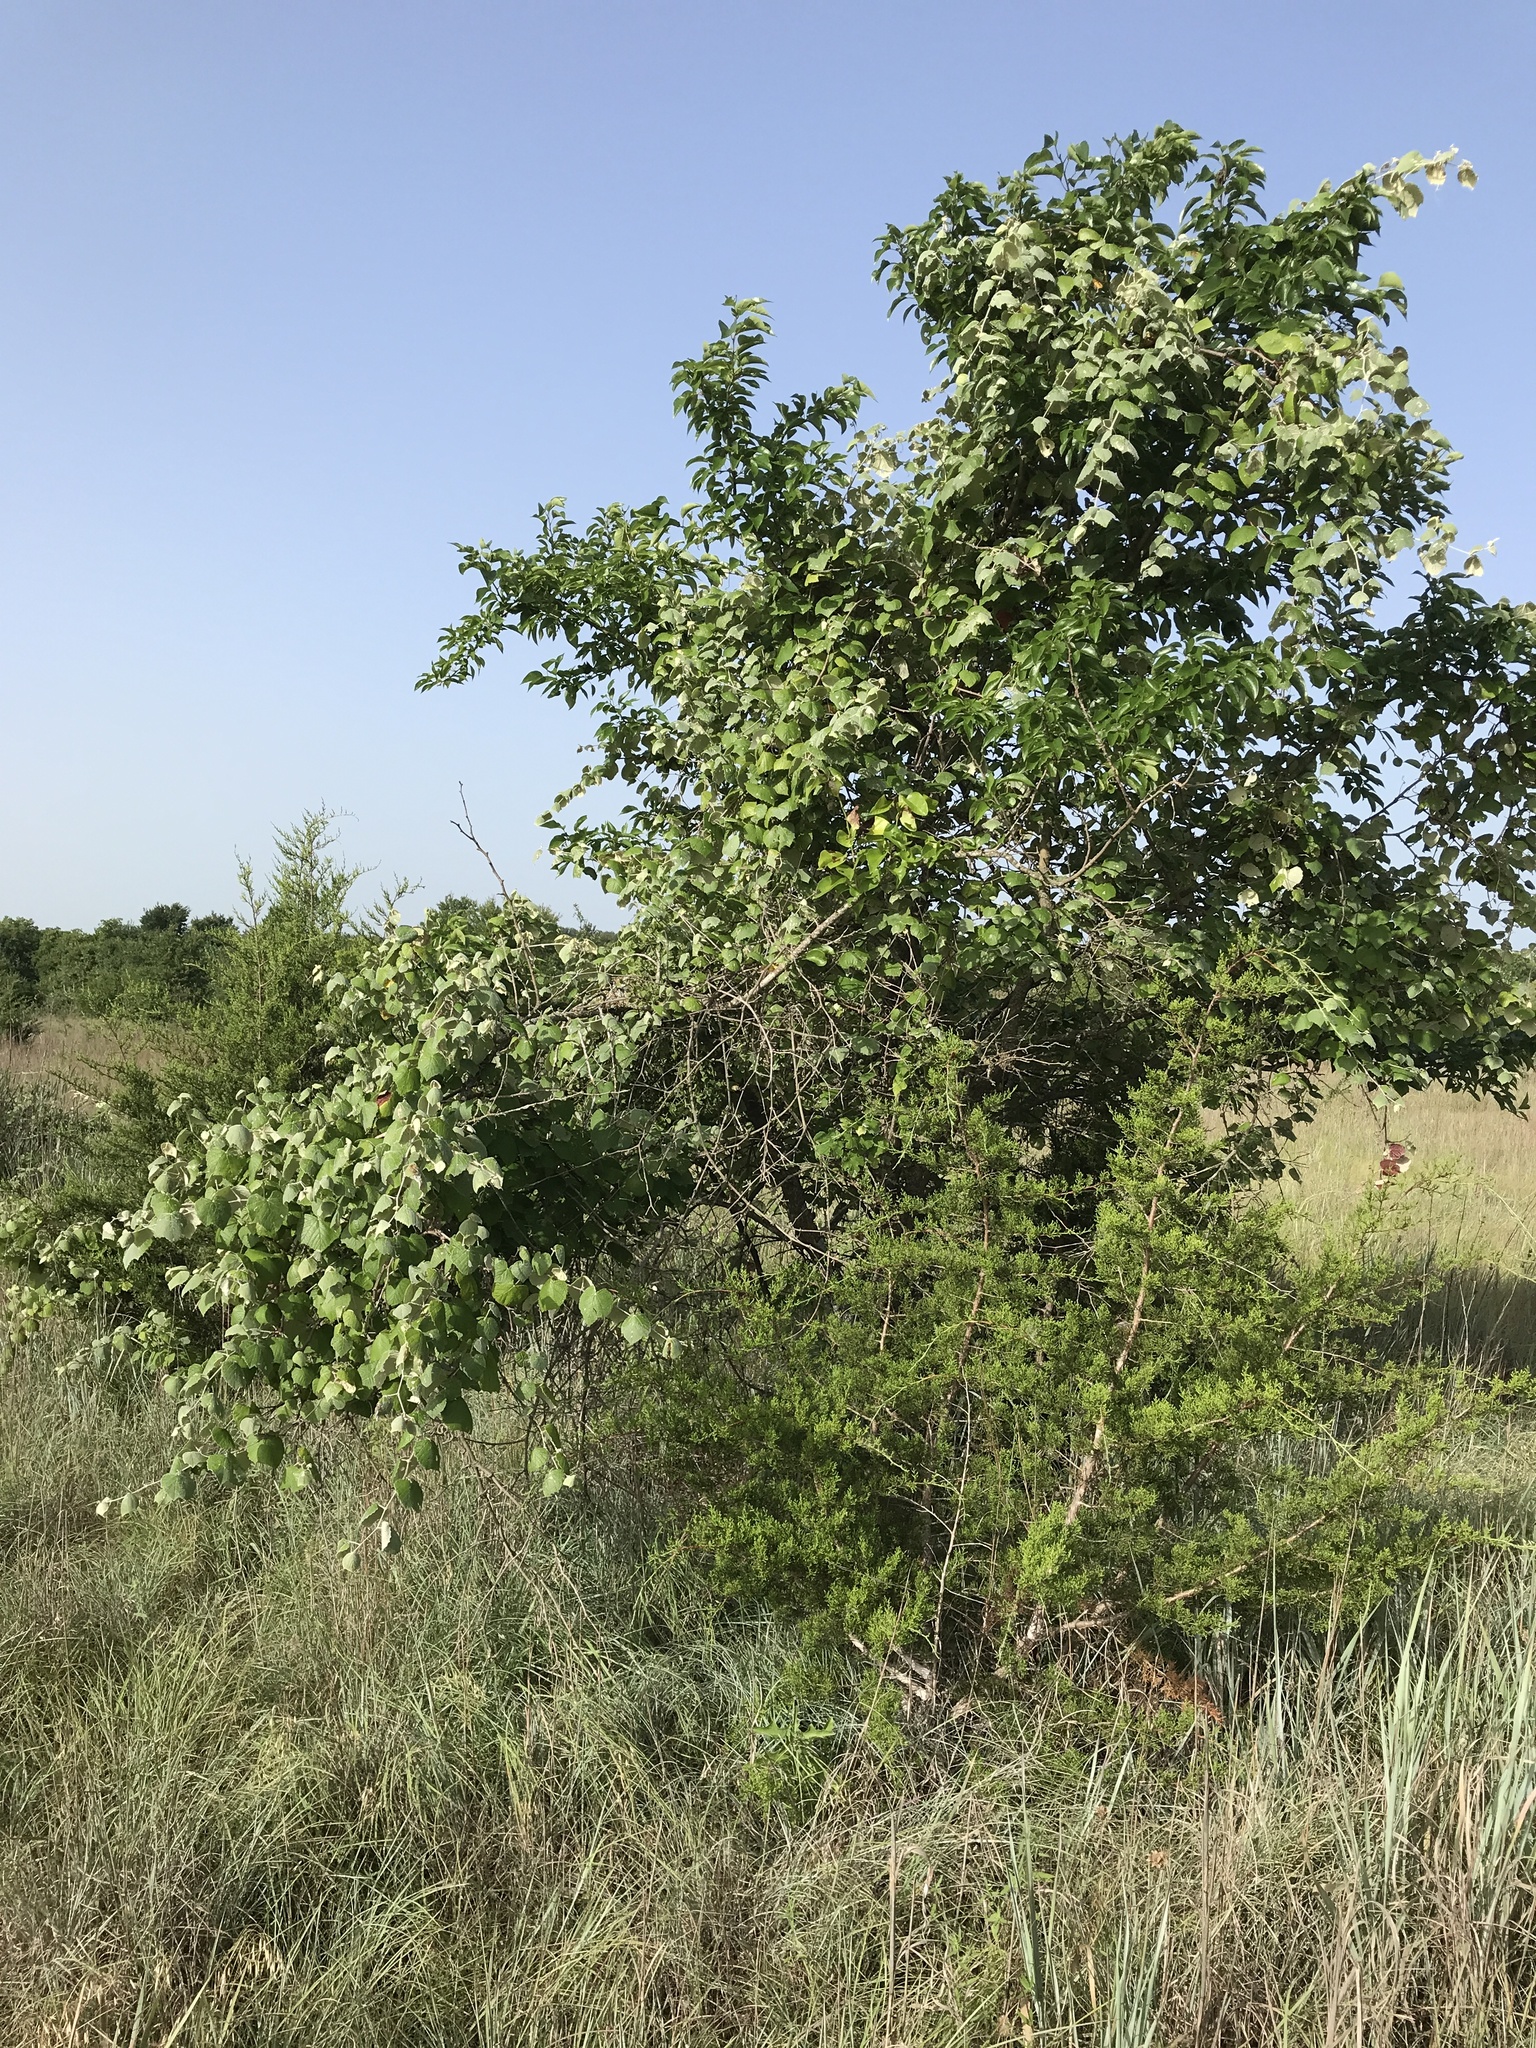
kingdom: Plantae
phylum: Tracheophyta
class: Magnoliopsida
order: Vitales
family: Vitaceae
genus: Vitis
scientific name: Vitis mustangensis
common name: Mustang grape
